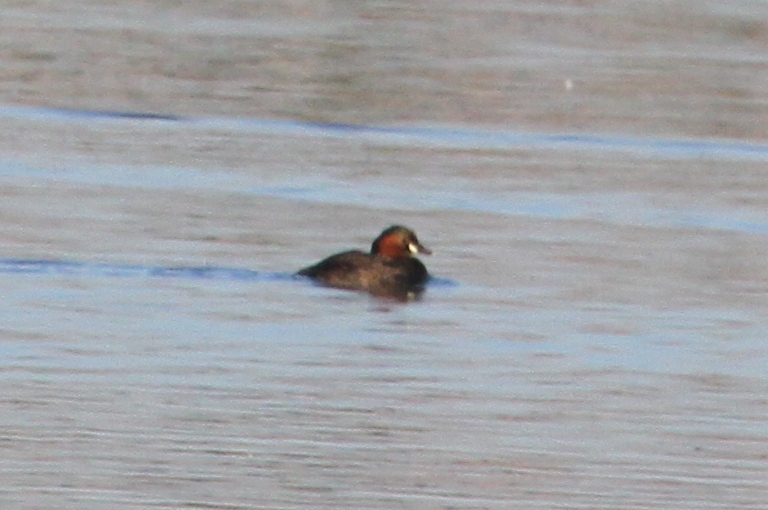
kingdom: Animalia
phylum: Chordata
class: Aves
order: Podicipediformes
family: Podicipedidae
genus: Tachybaptus
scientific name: Tachybaptus ruficollis
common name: Little grebe
